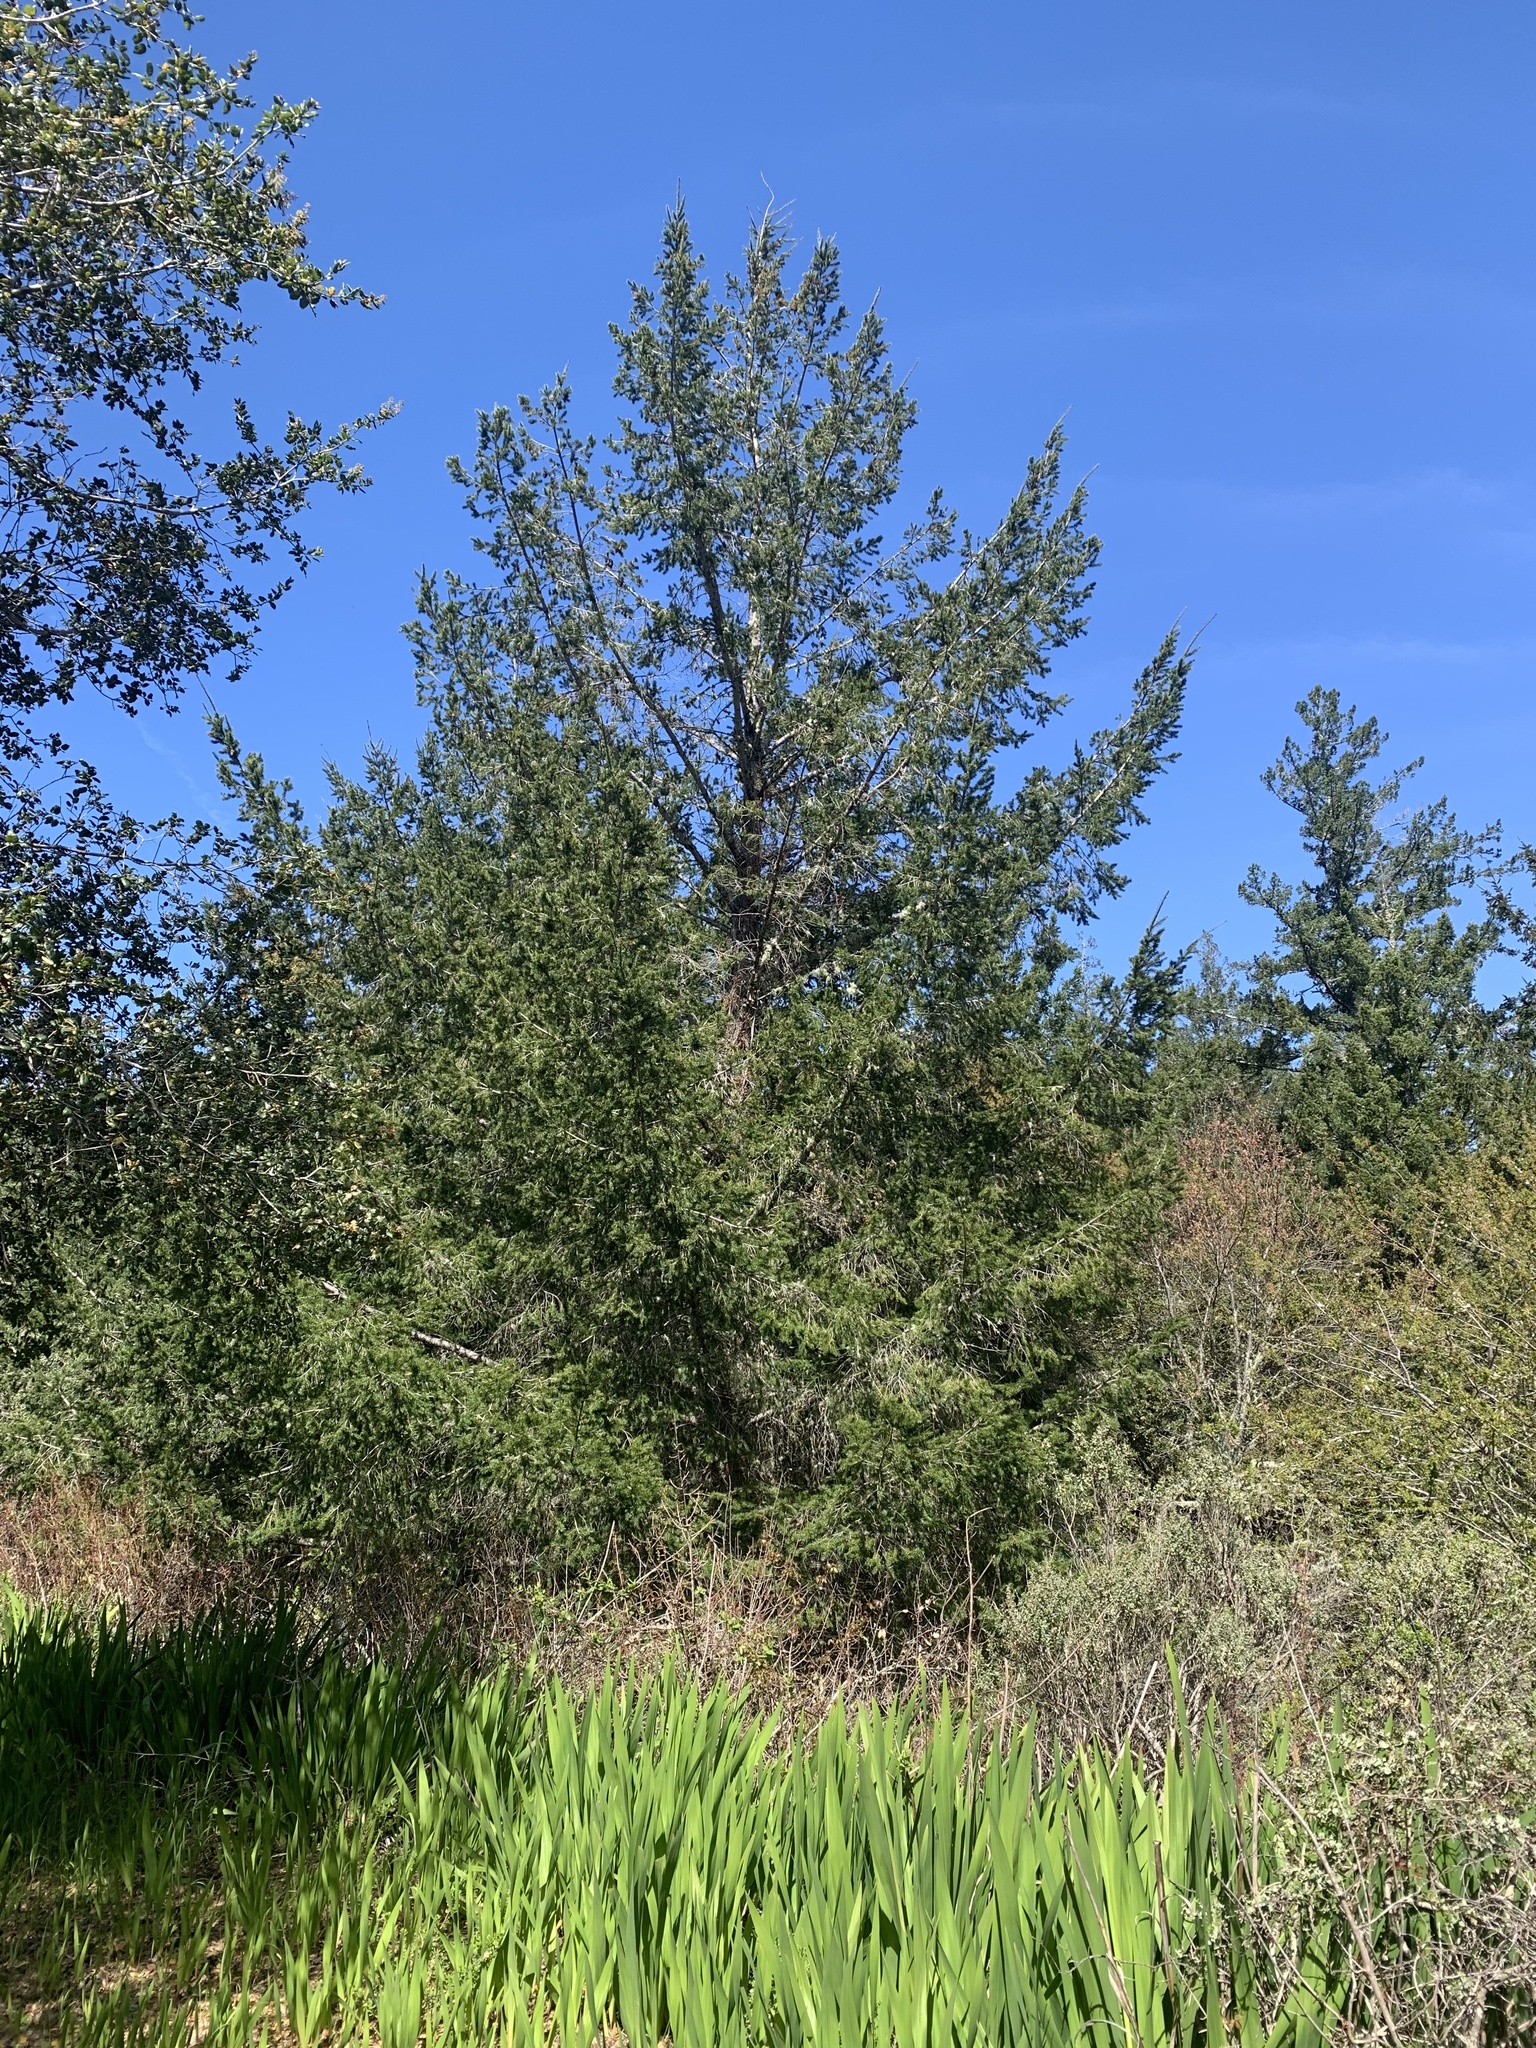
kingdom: Plantae
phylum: Tracheophyta
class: Pinopsida
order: Pinales
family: Pinaceae
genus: Pseudotsuga
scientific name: Pseudotsuga menziesii
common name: Douglas fir
